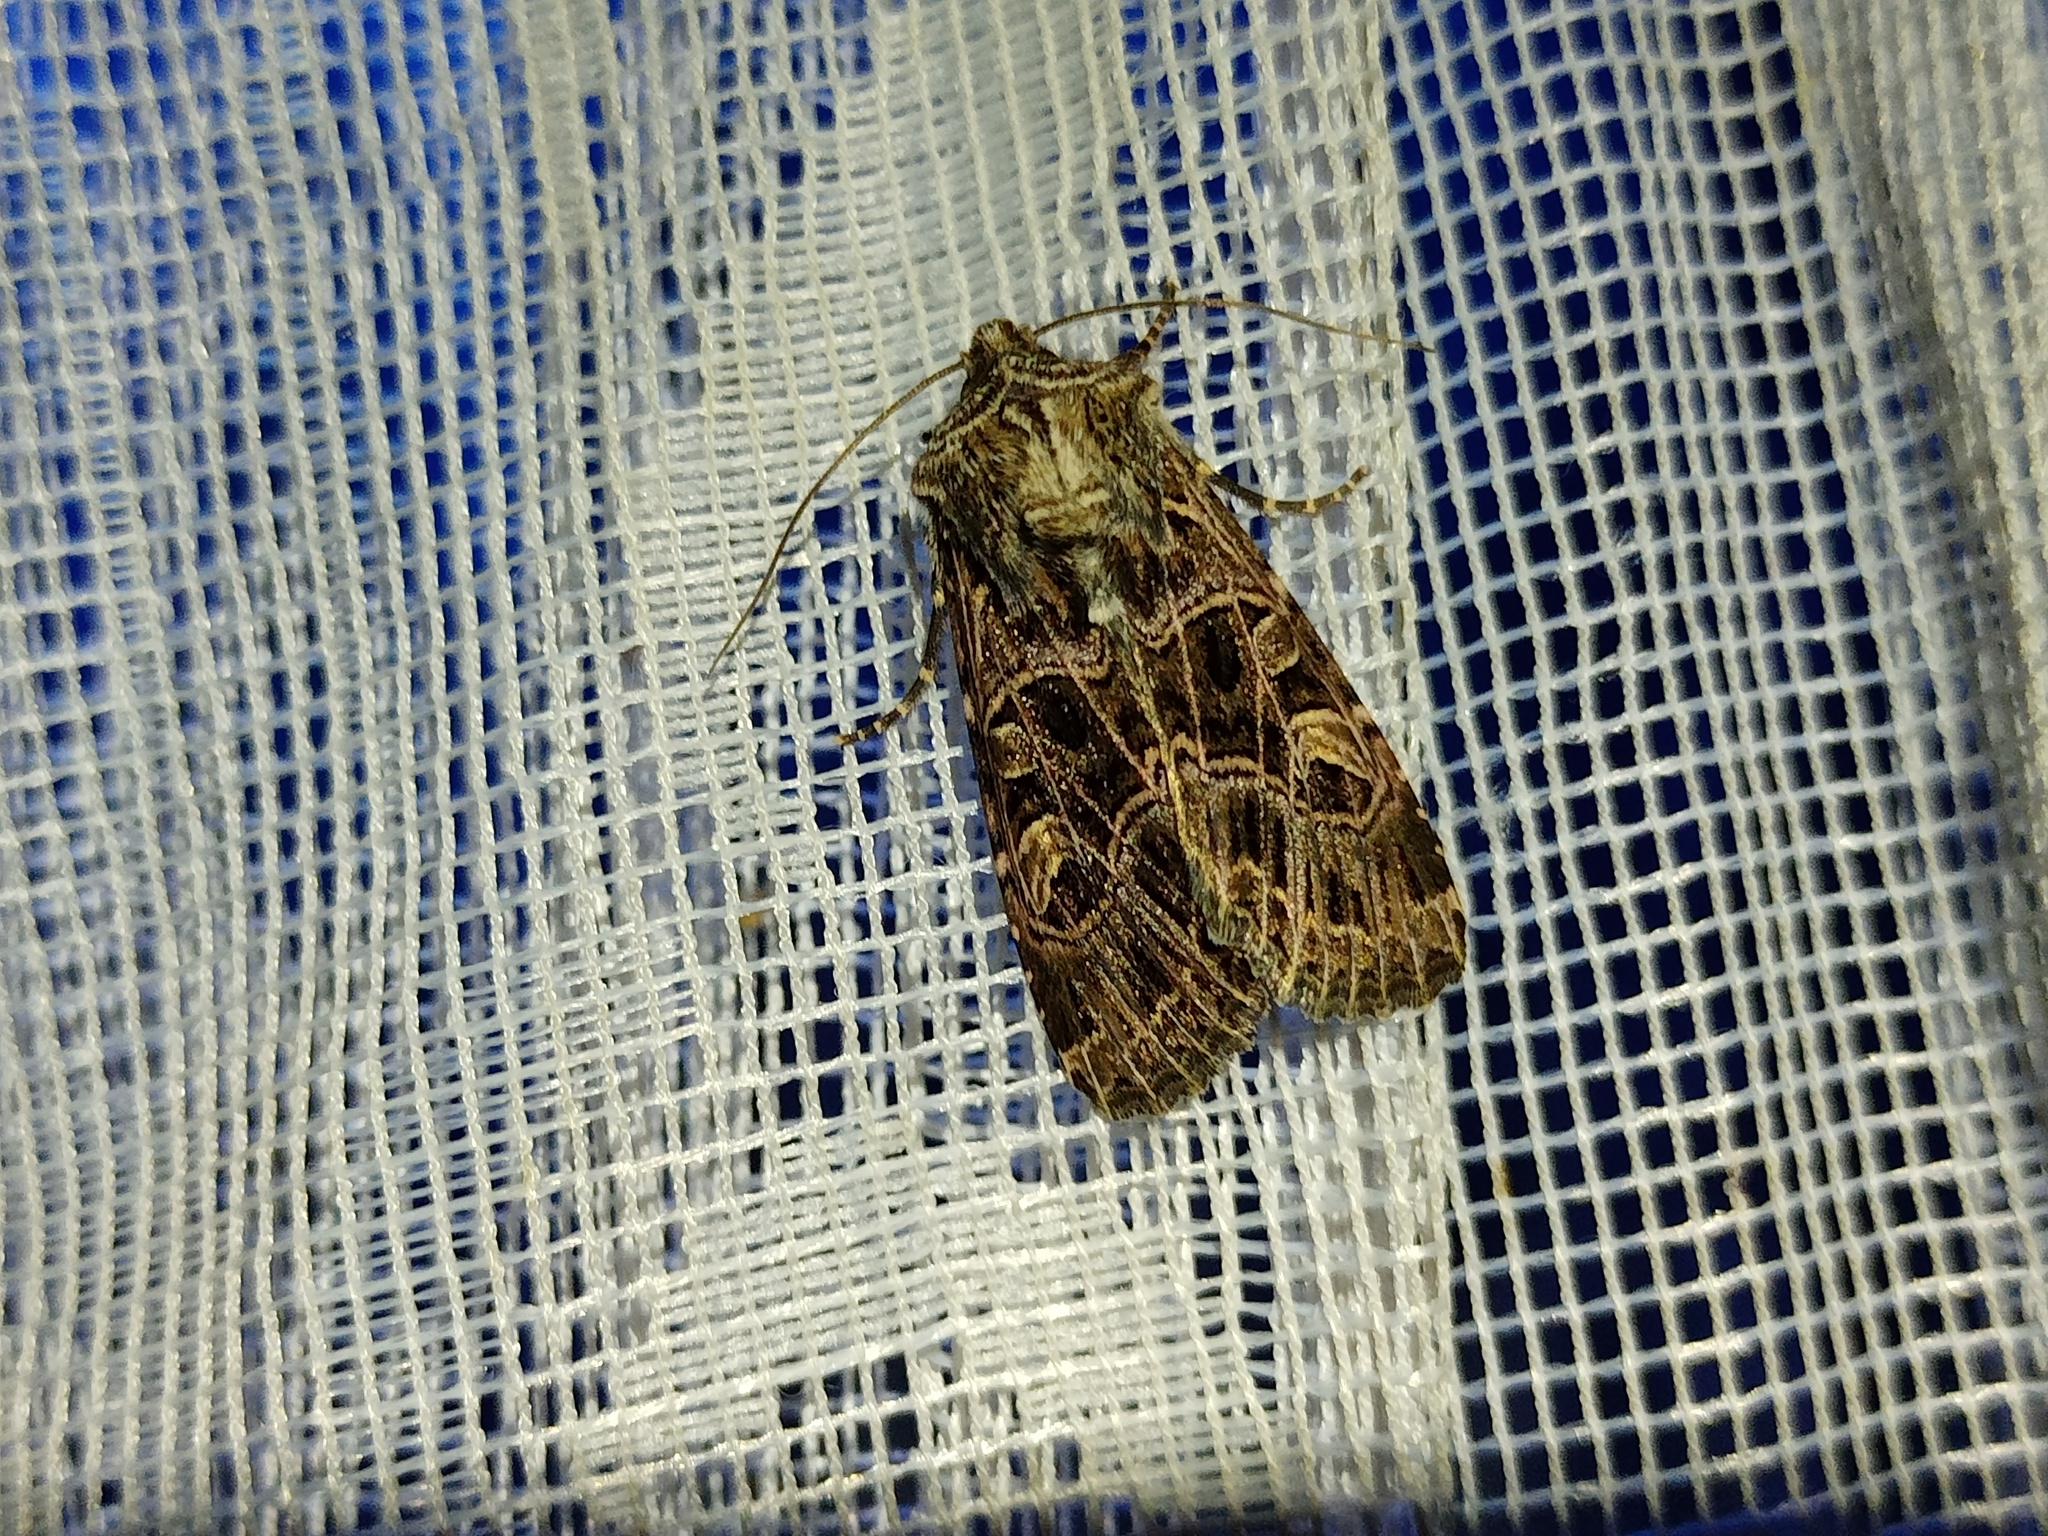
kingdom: Animalia
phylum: Arthropoda
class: Insecta
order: Lepidoptera
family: Noctuidae
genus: Sideridis
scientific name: Sideridis reticulata
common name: Bordered gothic
